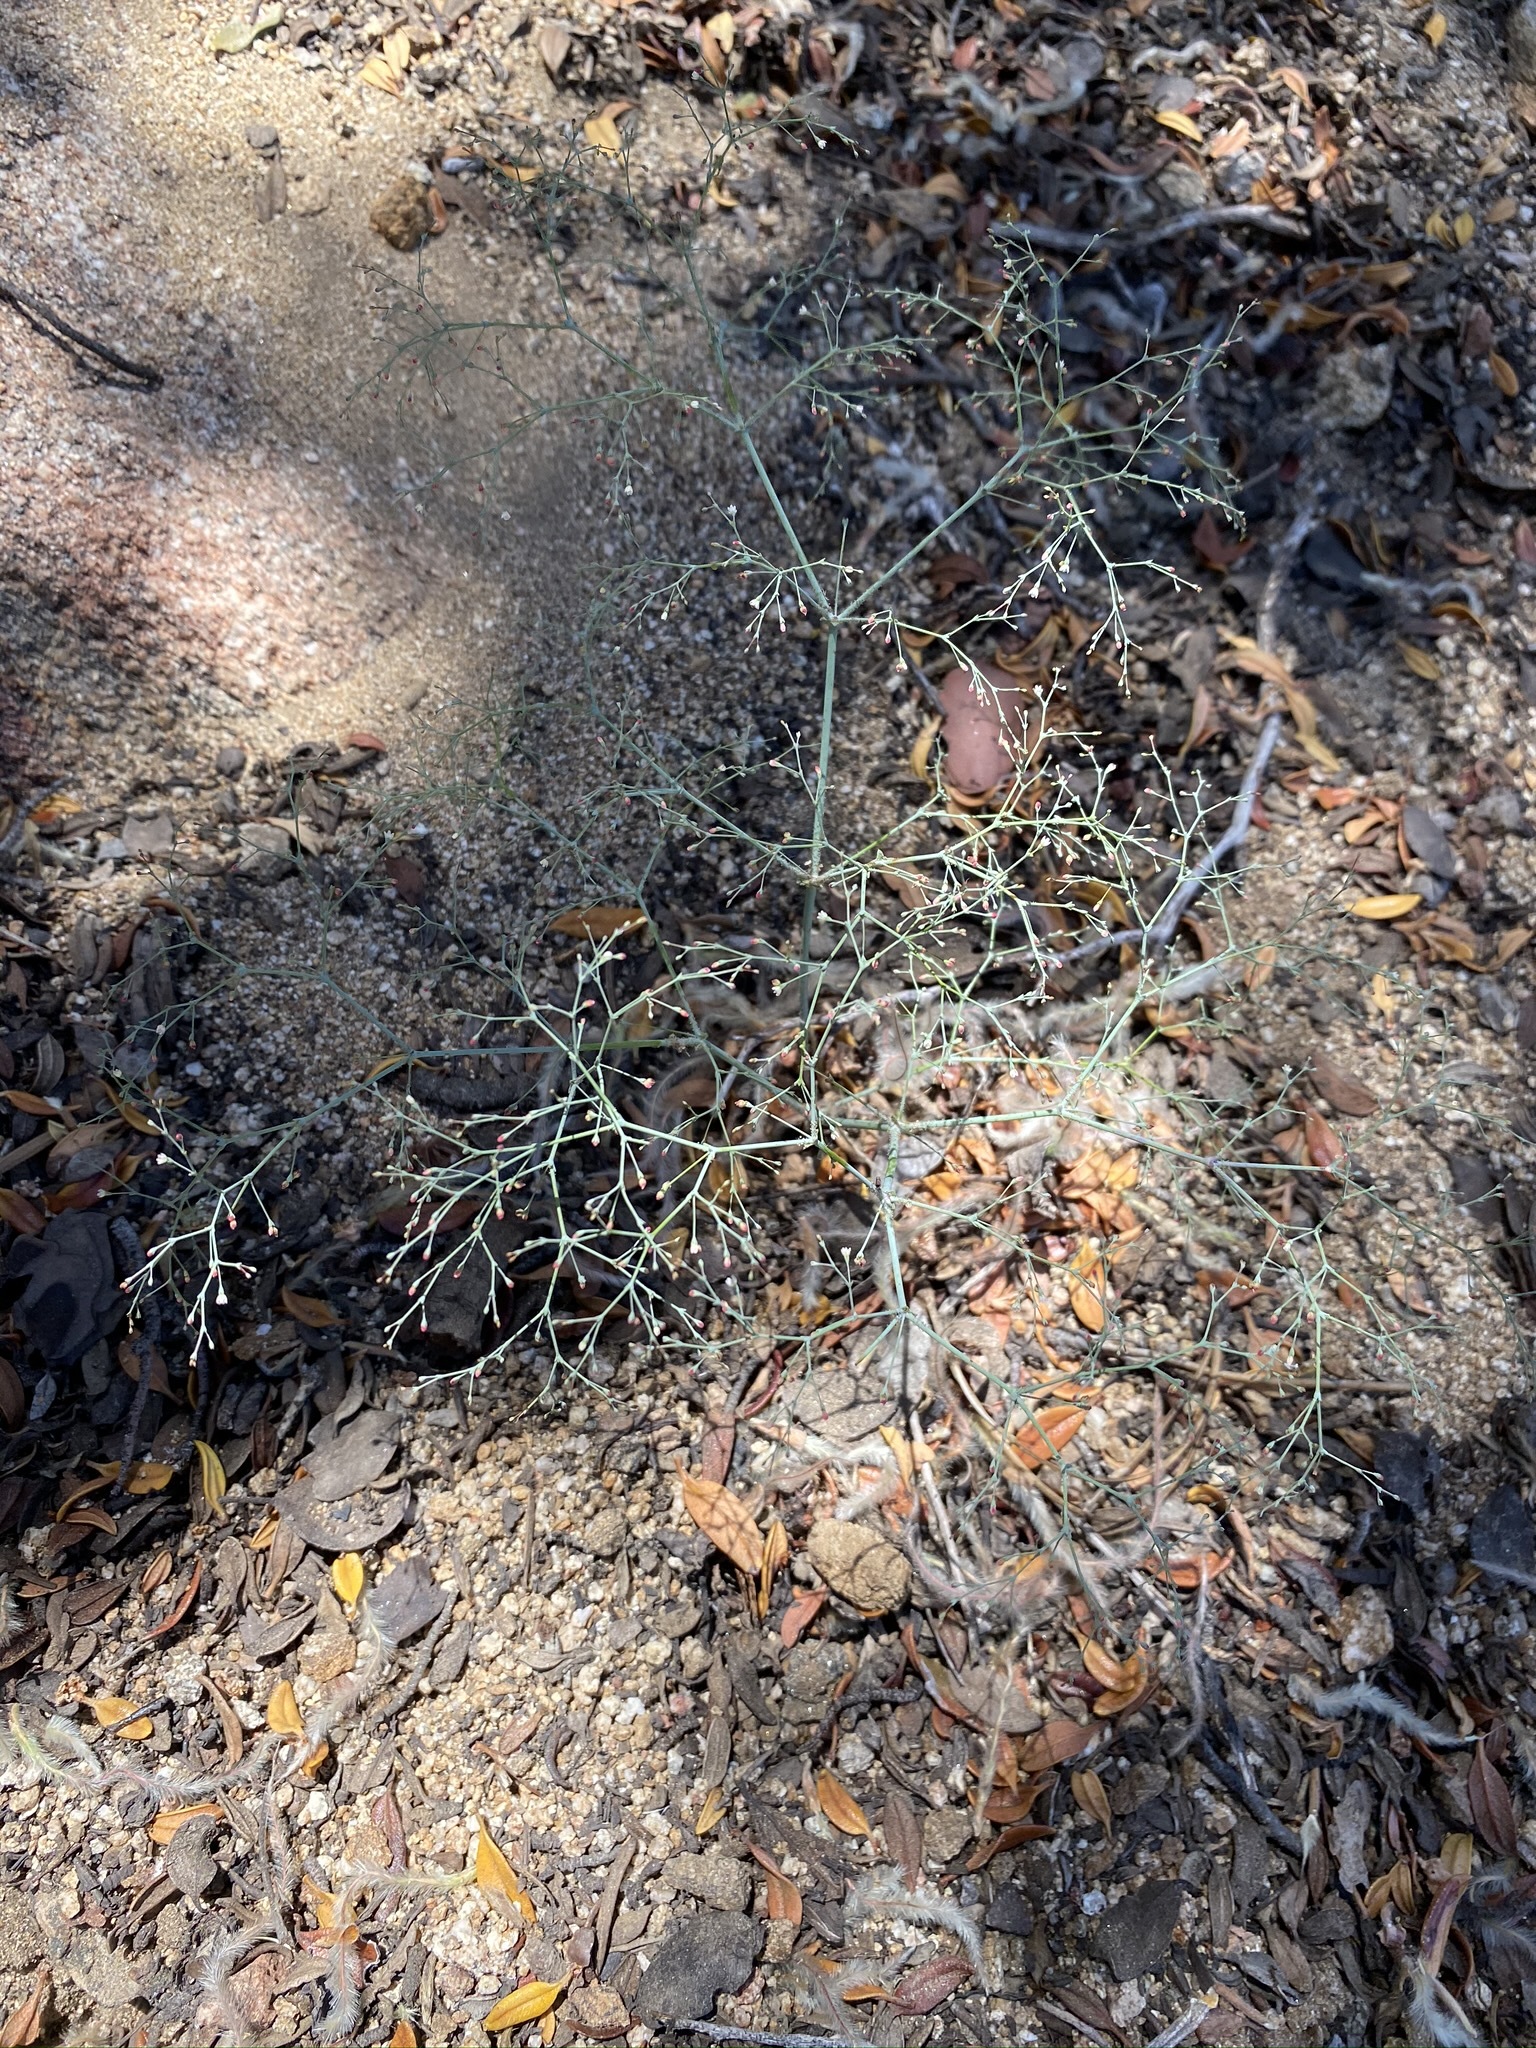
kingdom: Plantae
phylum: Tracheophyta
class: Magnoliopsida
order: Caryophyllales
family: Polygonaceae
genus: Eriogonum
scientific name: Eriogonum parishii
